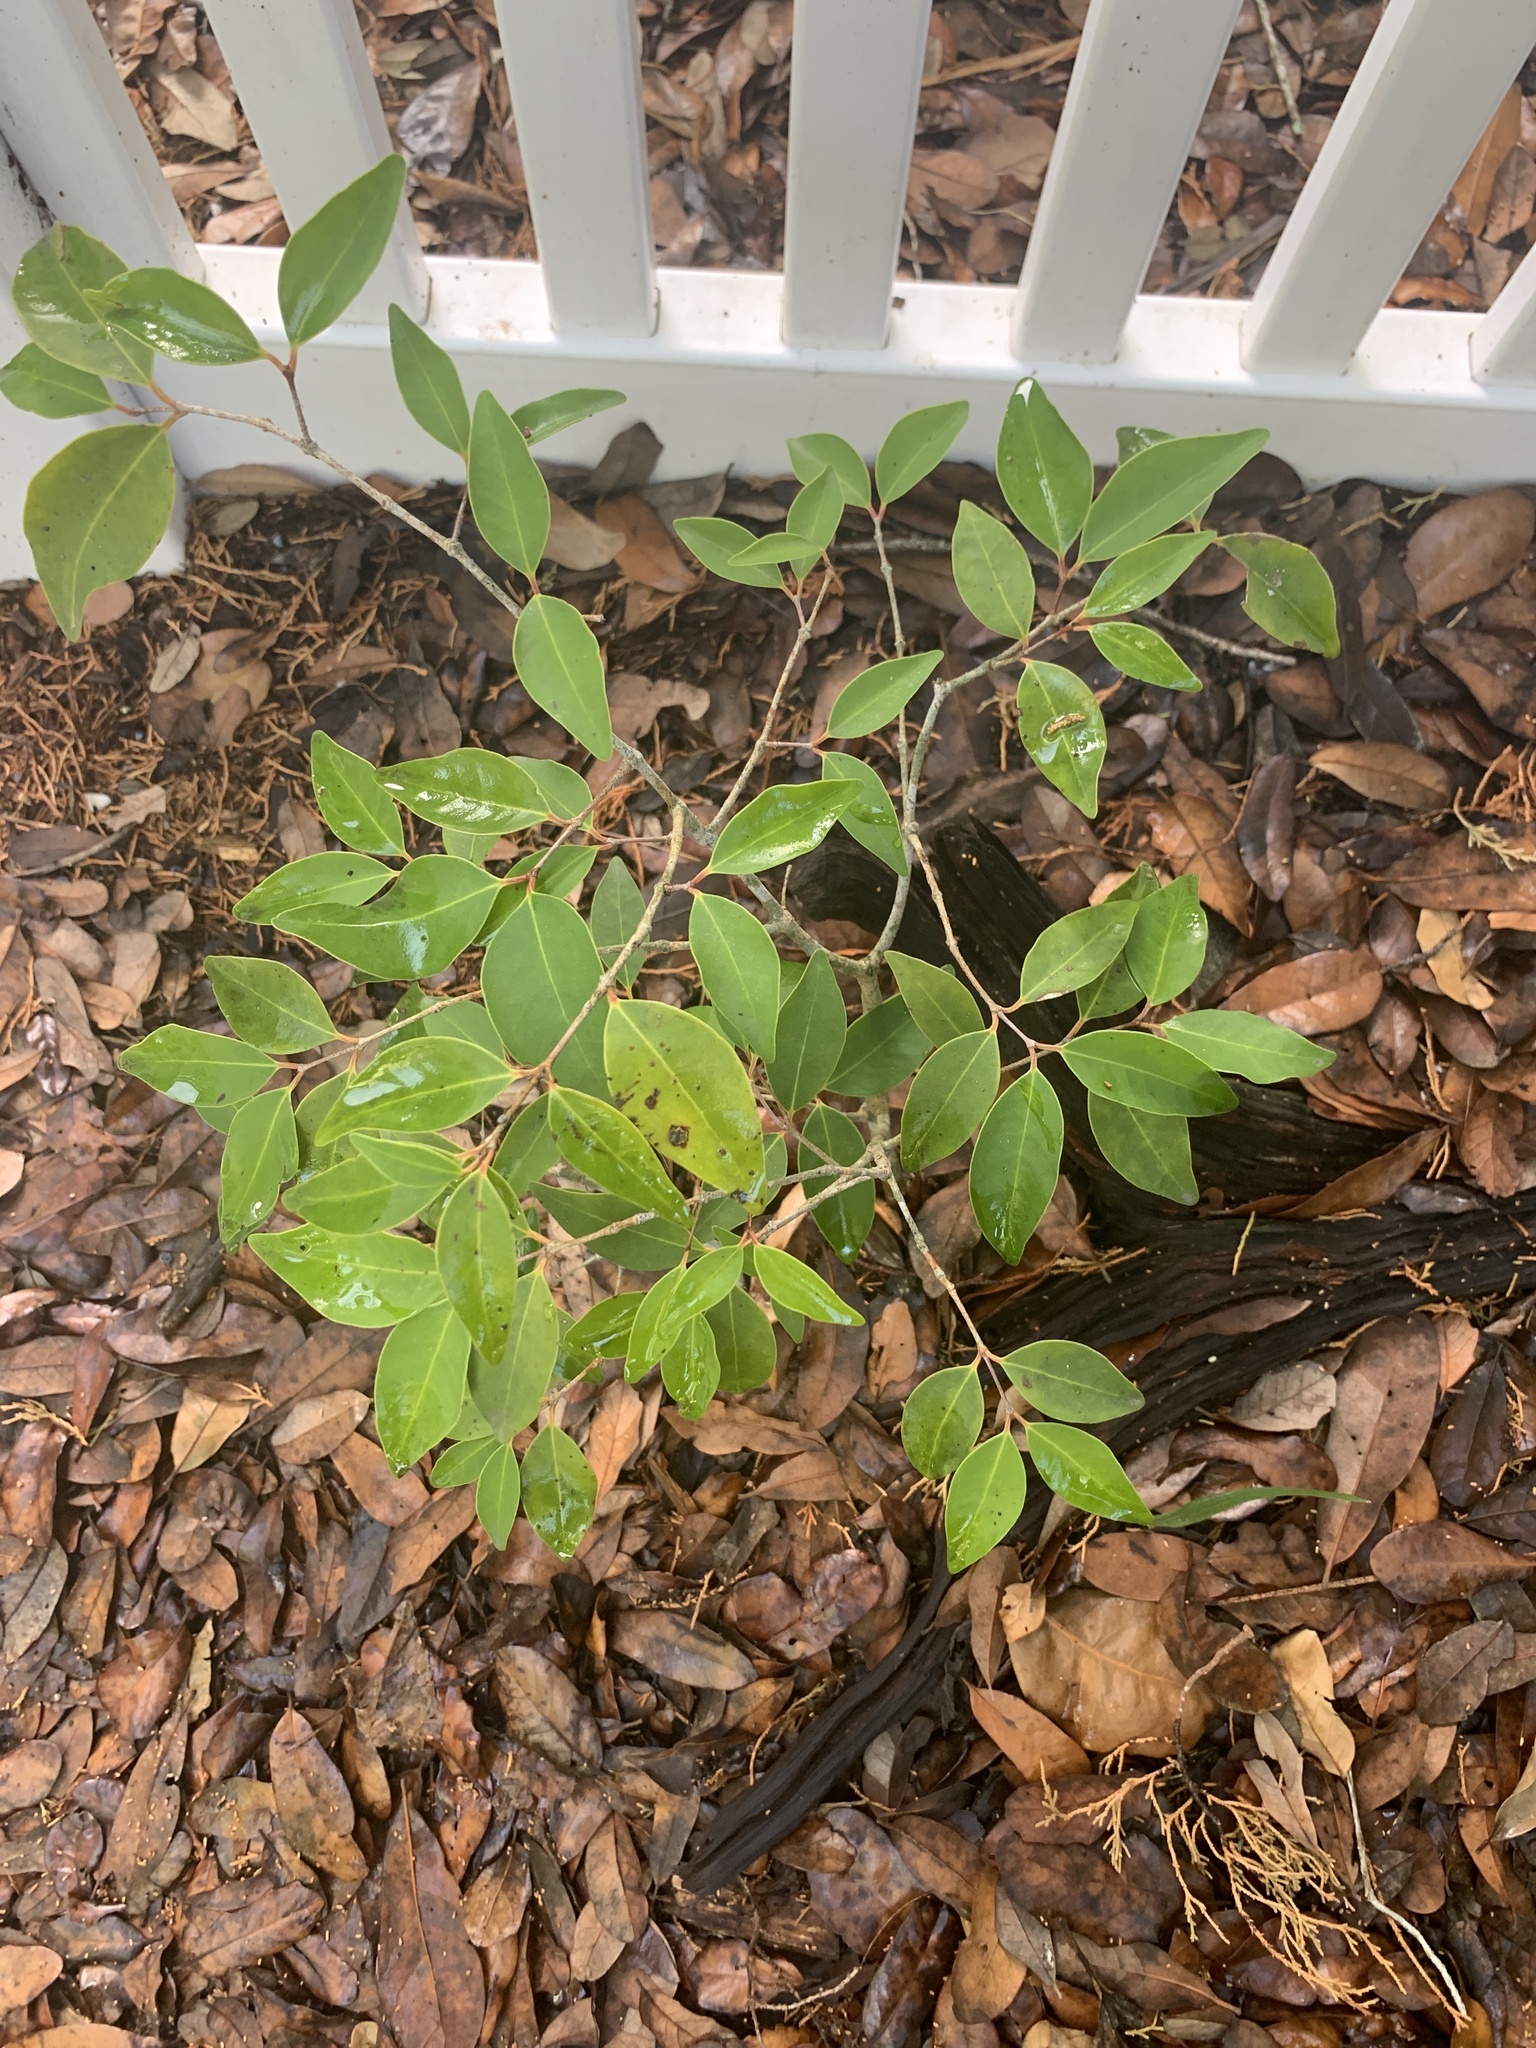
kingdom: Plantae
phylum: Tracheophyta
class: Magnoliopsida
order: Myrtales
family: Myrtaceae
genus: Eugenia
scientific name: Eugenia axillaris
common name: Choaky berry
